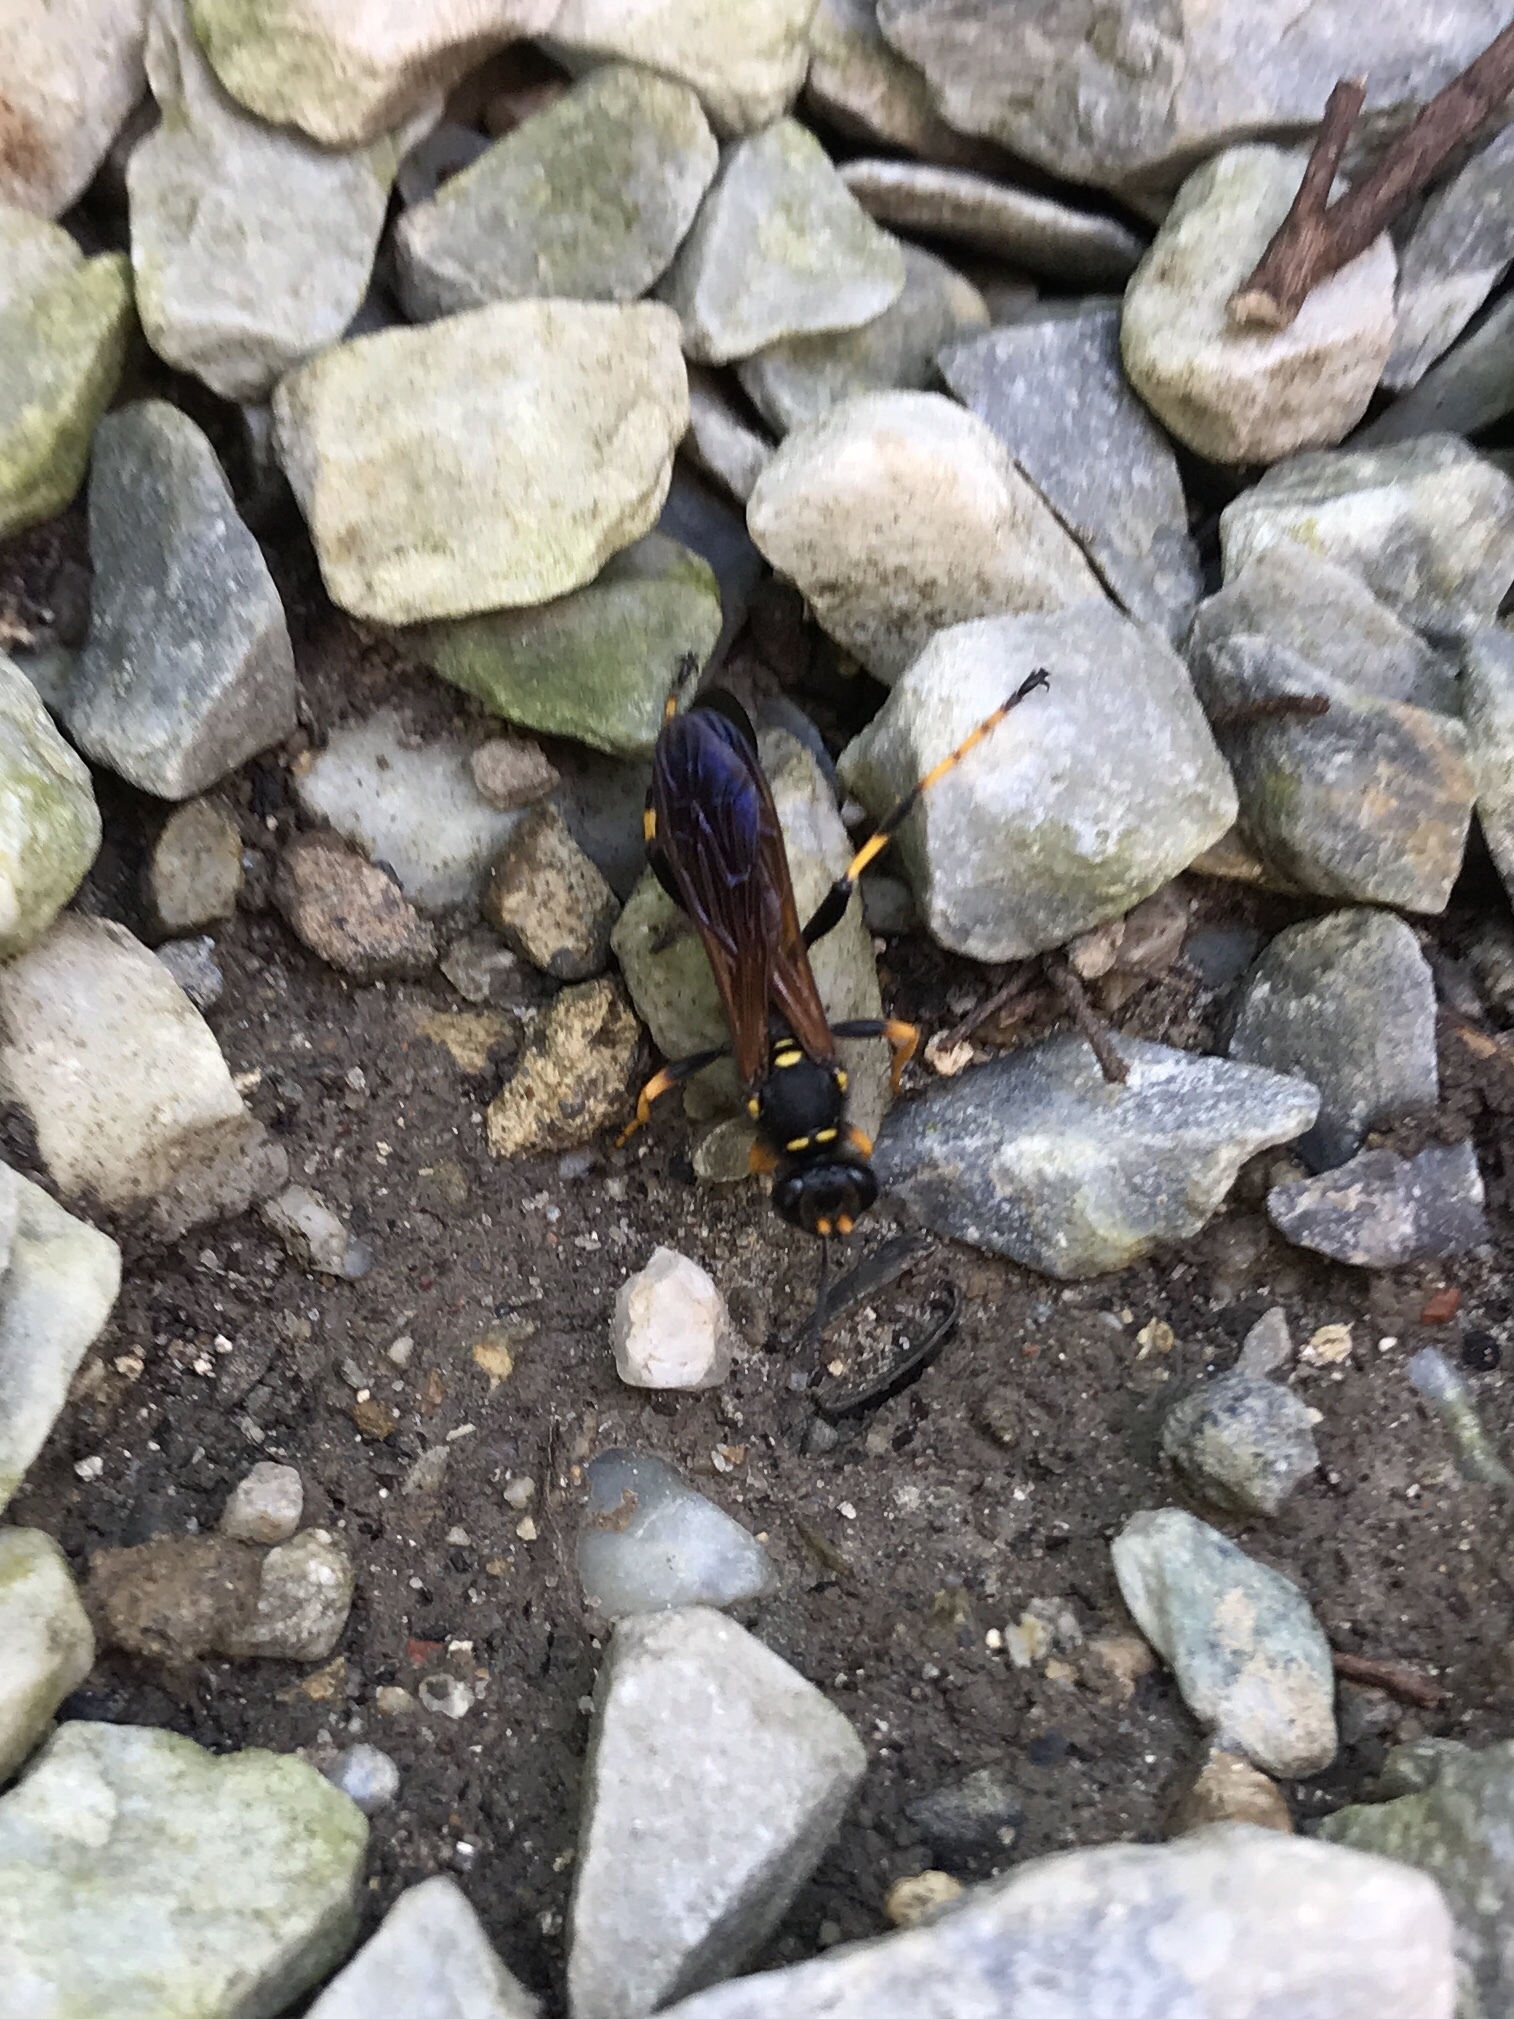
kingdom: Animalia
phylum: Arthropoda
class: Insecta
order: Hymenoptera
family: Sphecidae
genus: Sceliphron
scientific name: Sceliphron caementarium
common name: Mud dauber
